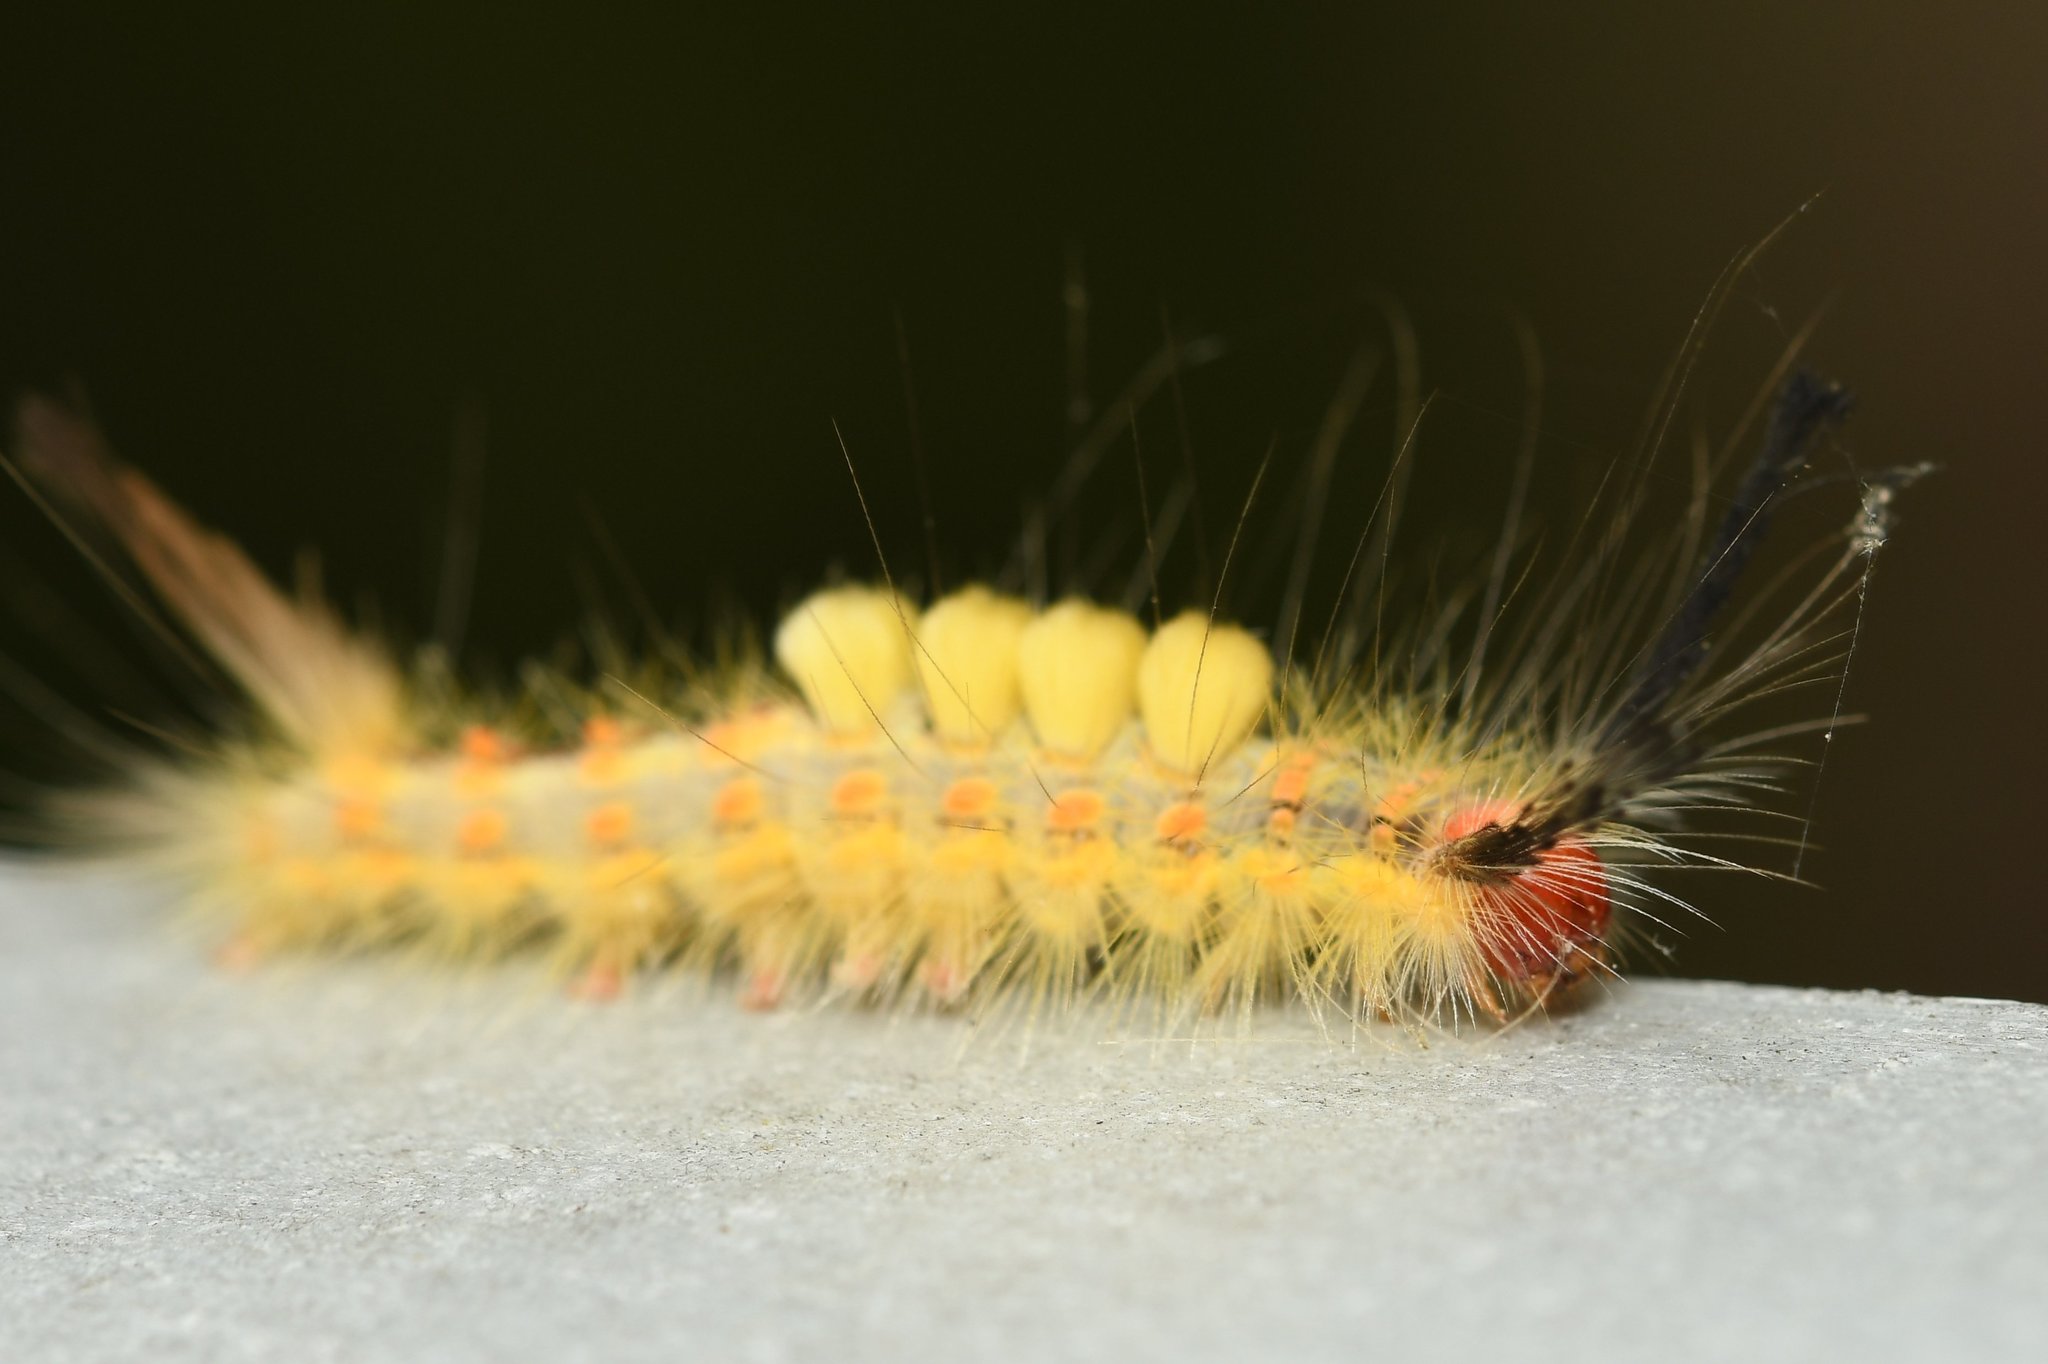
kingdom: Animalia
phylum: Arthropoda
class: Insecta
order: Lepidoptera
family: Erebidae
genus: Orgyia
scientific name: Orgyia detrita
